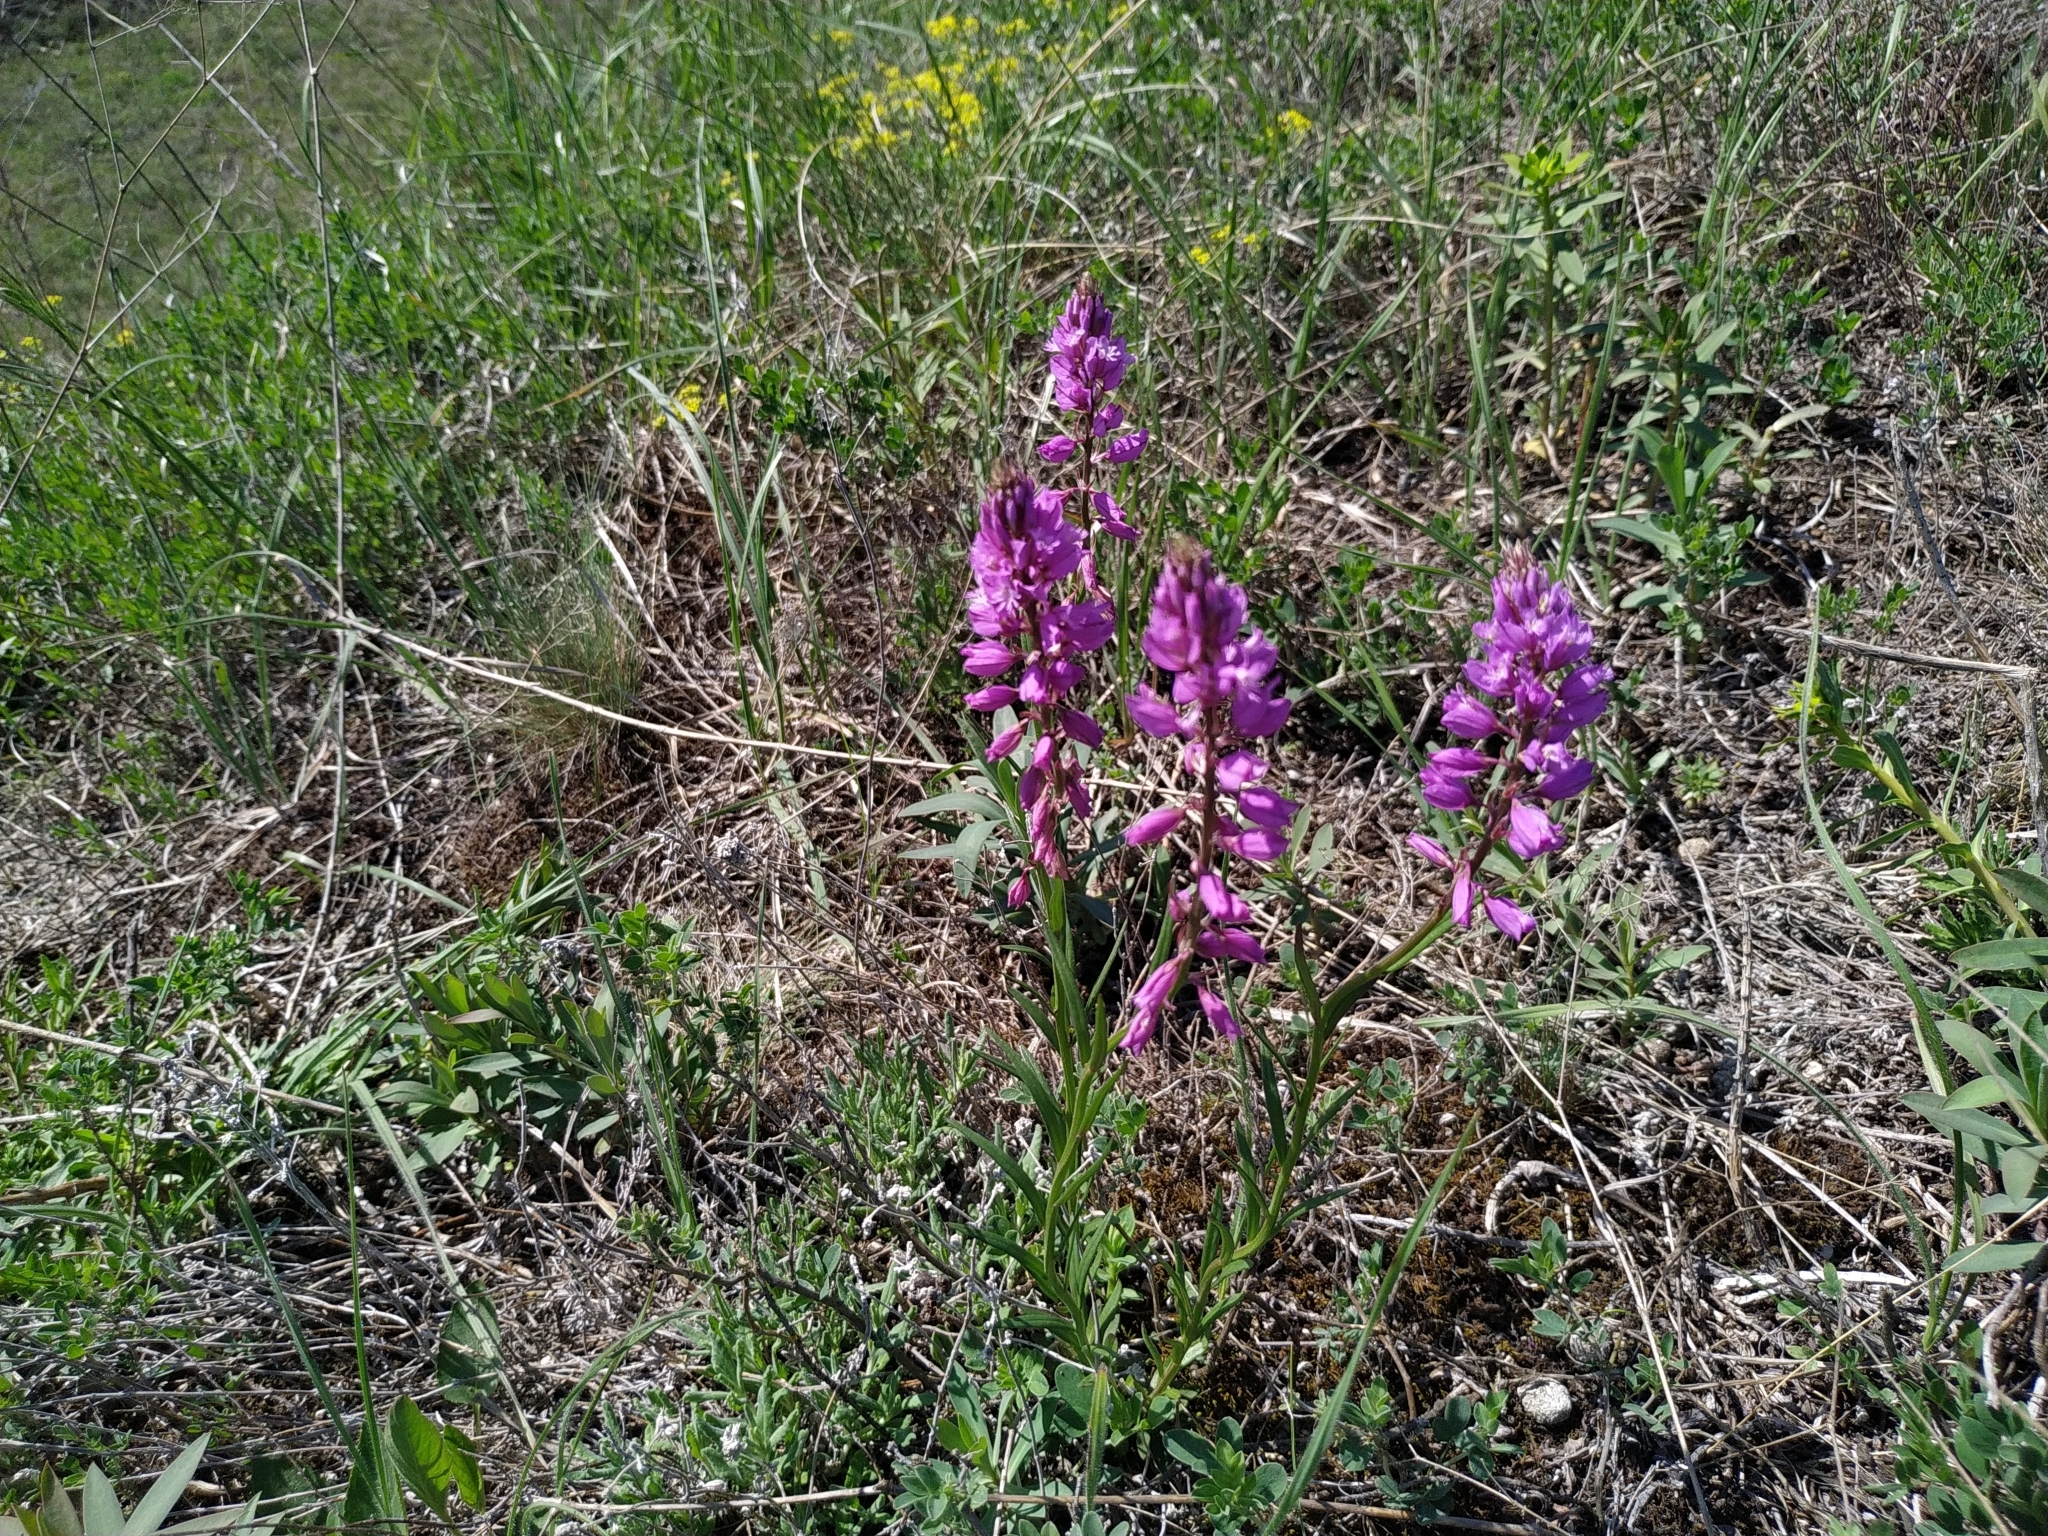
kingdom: Plantae
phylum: Tracheophyta
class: Magnoliopsida
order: Fabales
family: Polygalaceae
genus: Polygala
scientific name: Polygala nicaeensis
